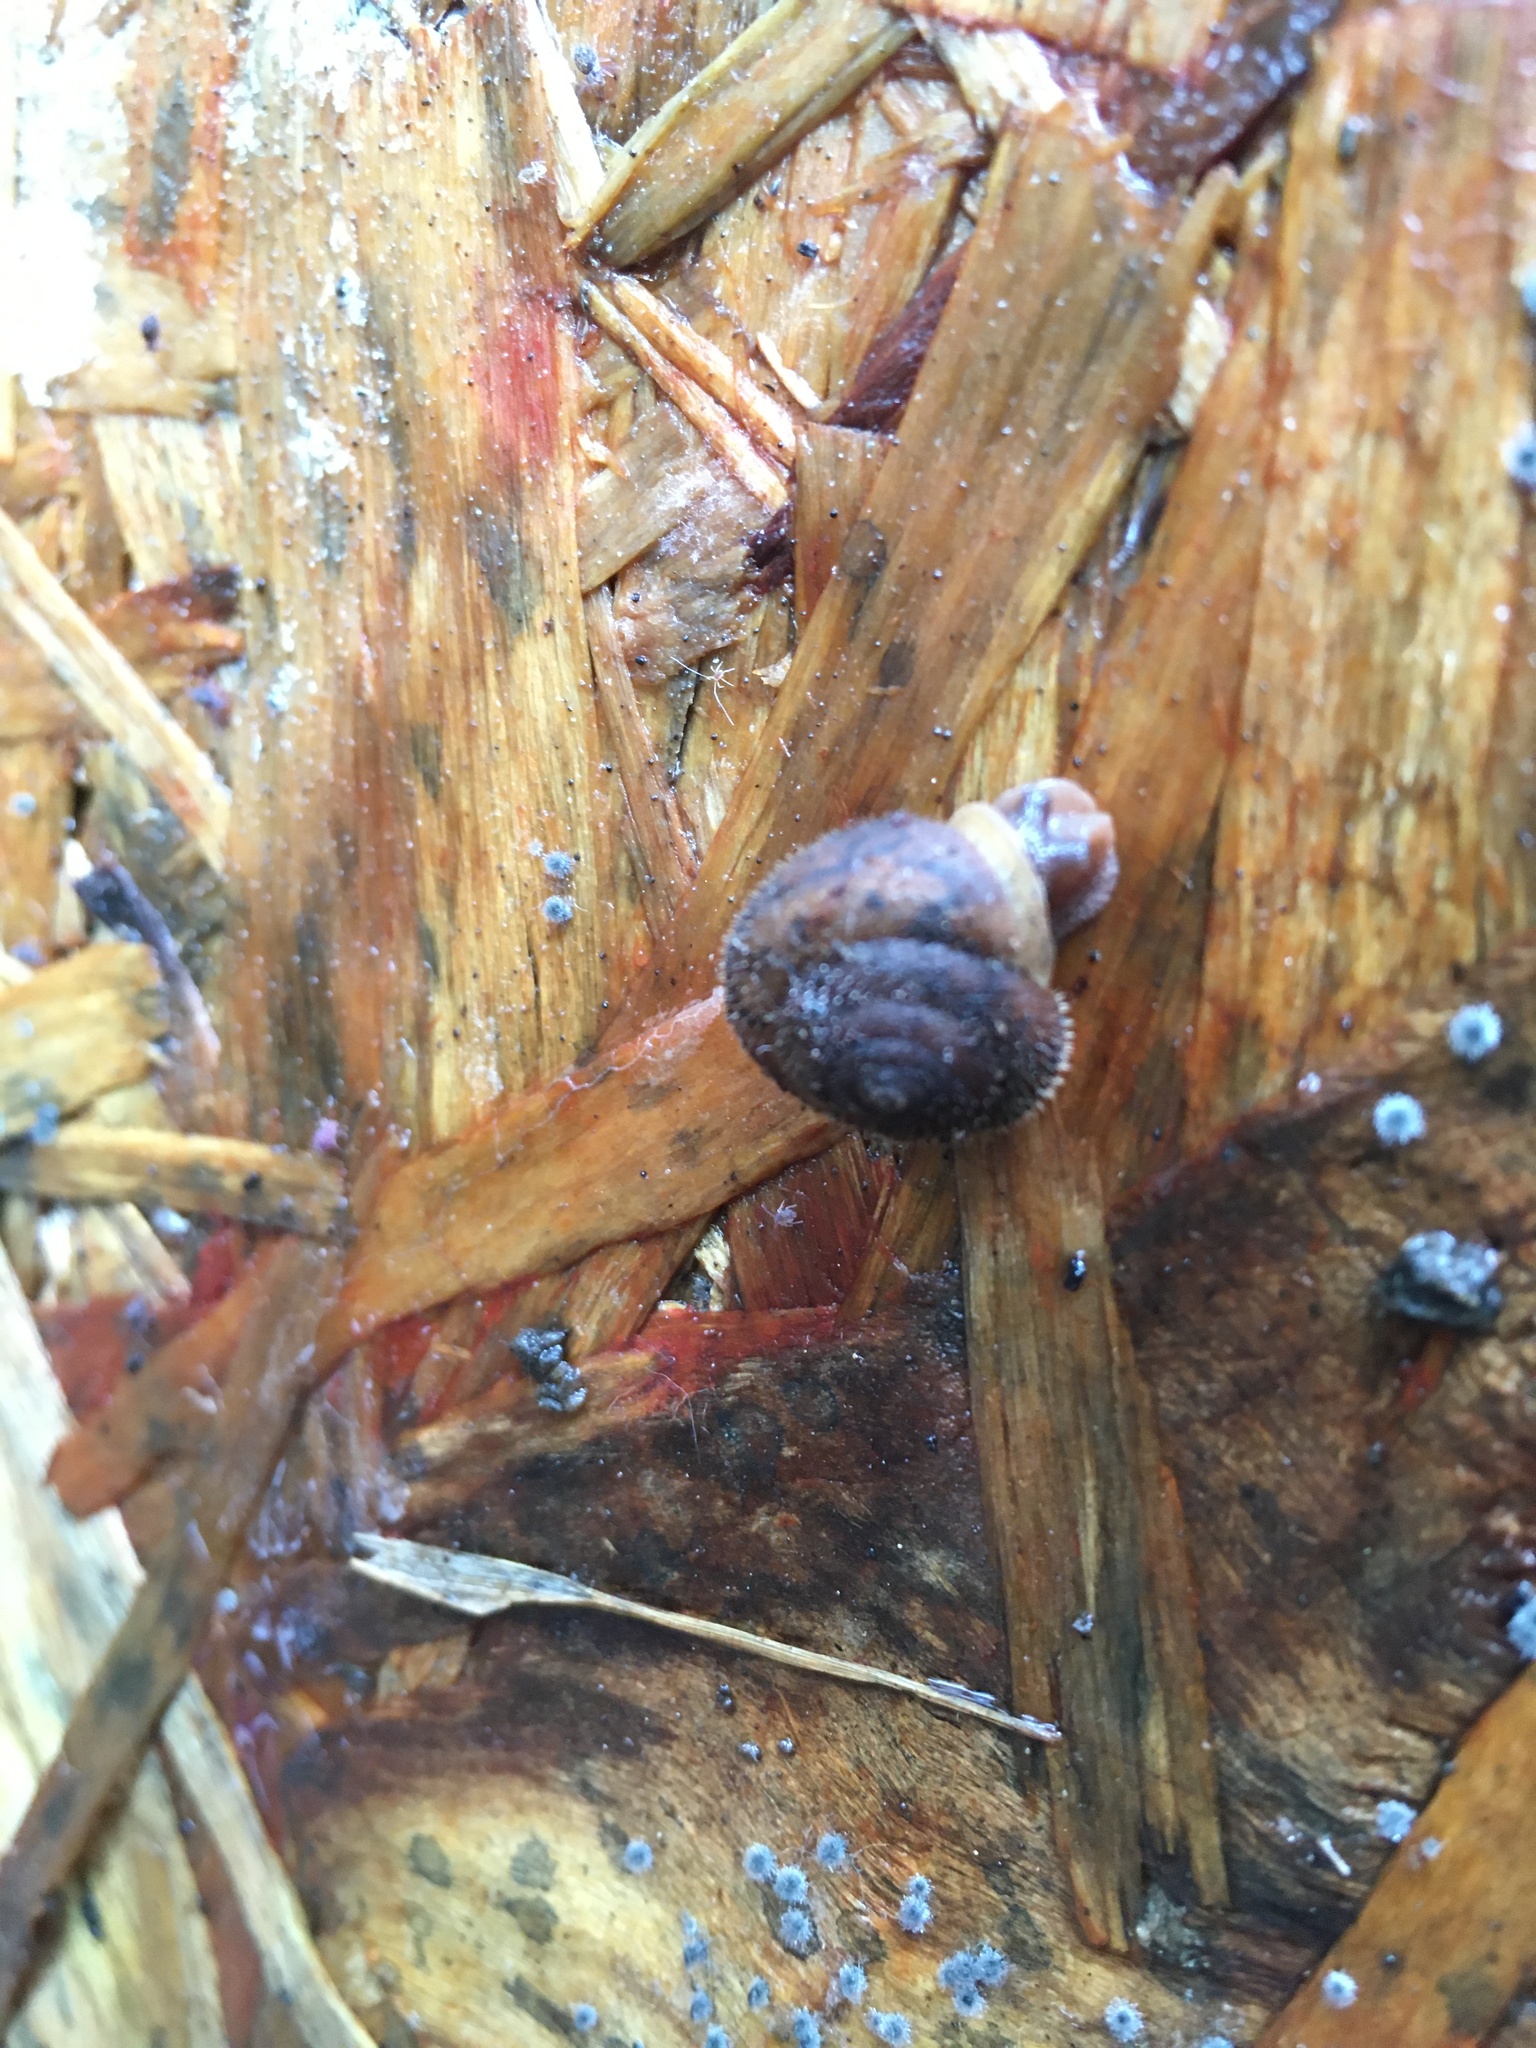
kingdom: Animalia
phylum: Mollusca
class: Gastropoda
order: Stylommatophora
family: Polygyridae
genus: Vespericola
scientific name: Vespericola columbianus
